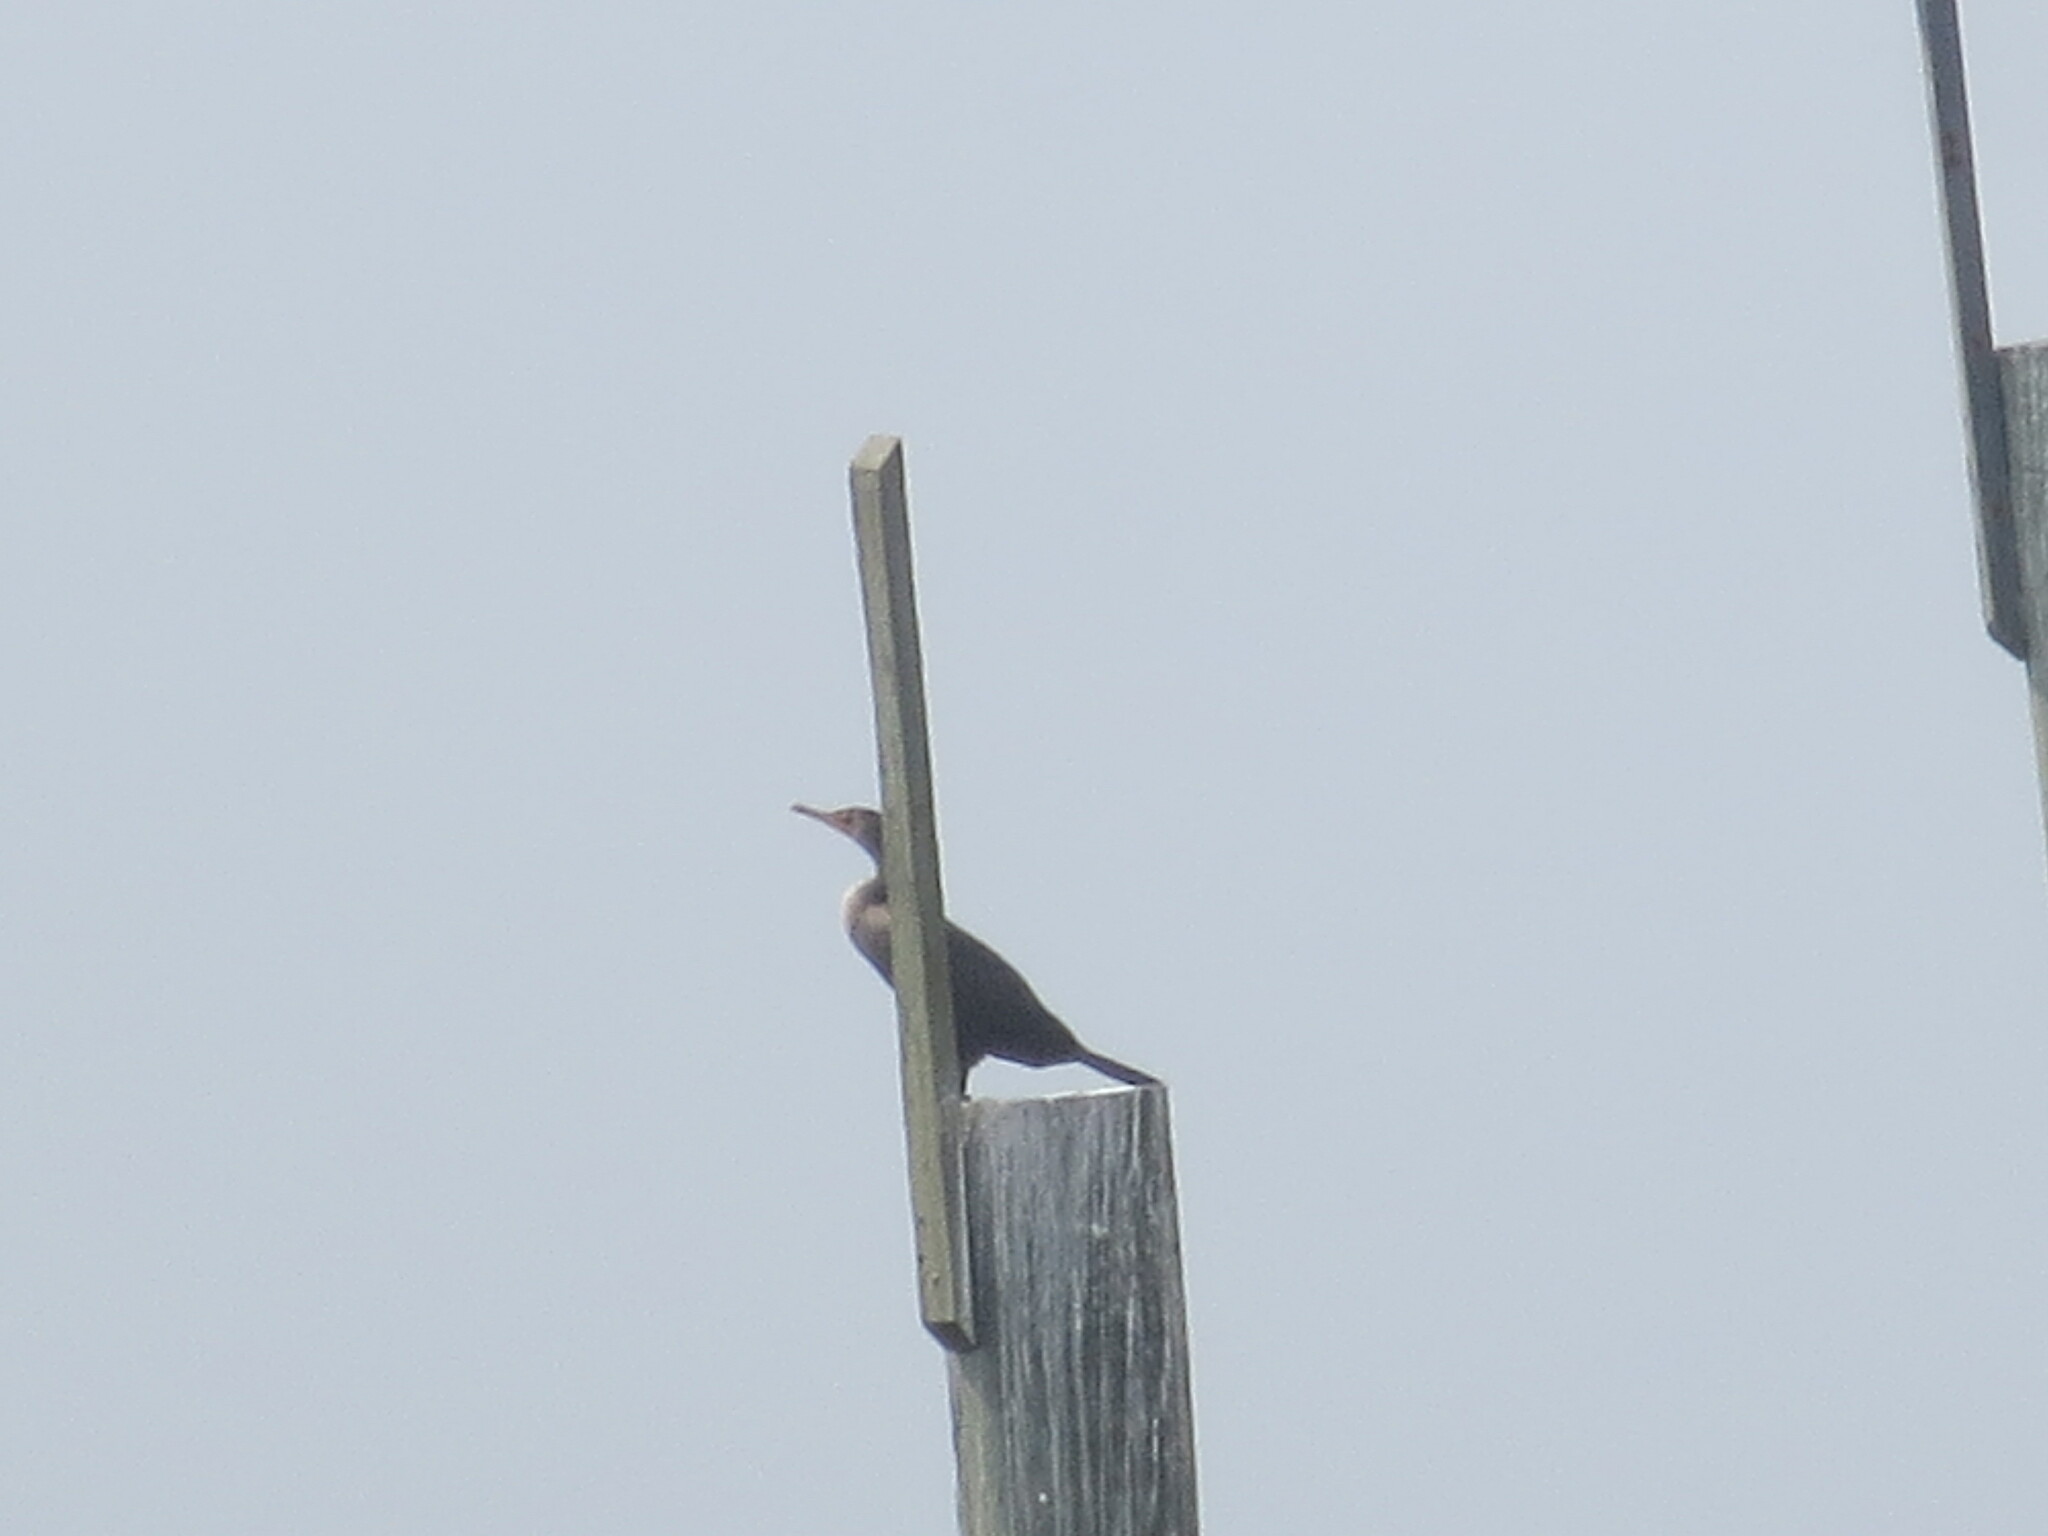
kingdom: Animalia
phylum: Chordata
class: Aves
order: Suliformes
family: Phalacrocoracidae
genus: Phalacrocorax
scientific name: Phalacrocorax auritus
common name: Double-crested cormorant
